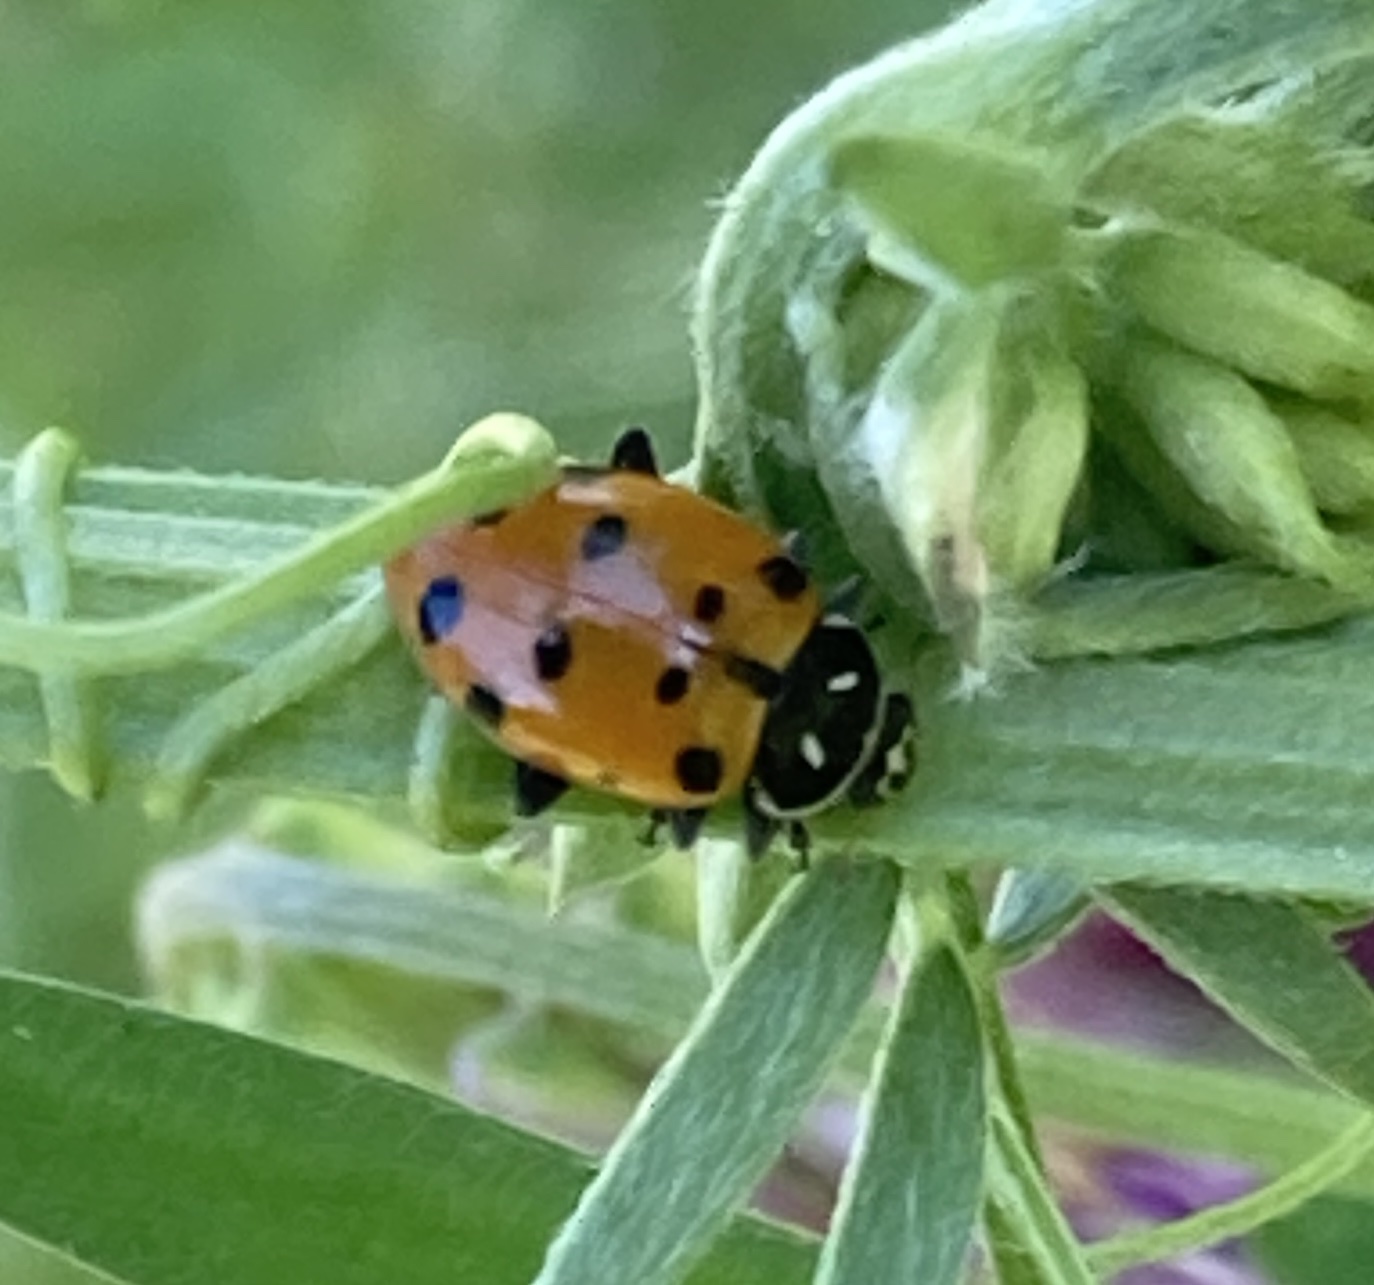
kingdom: Animalia
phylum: Arthropoda
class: Insecta
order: Coleoptera
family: Coccinellidae
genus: Hippodamia
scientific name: Hippodamia convergens
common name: Convergent lady beetle
